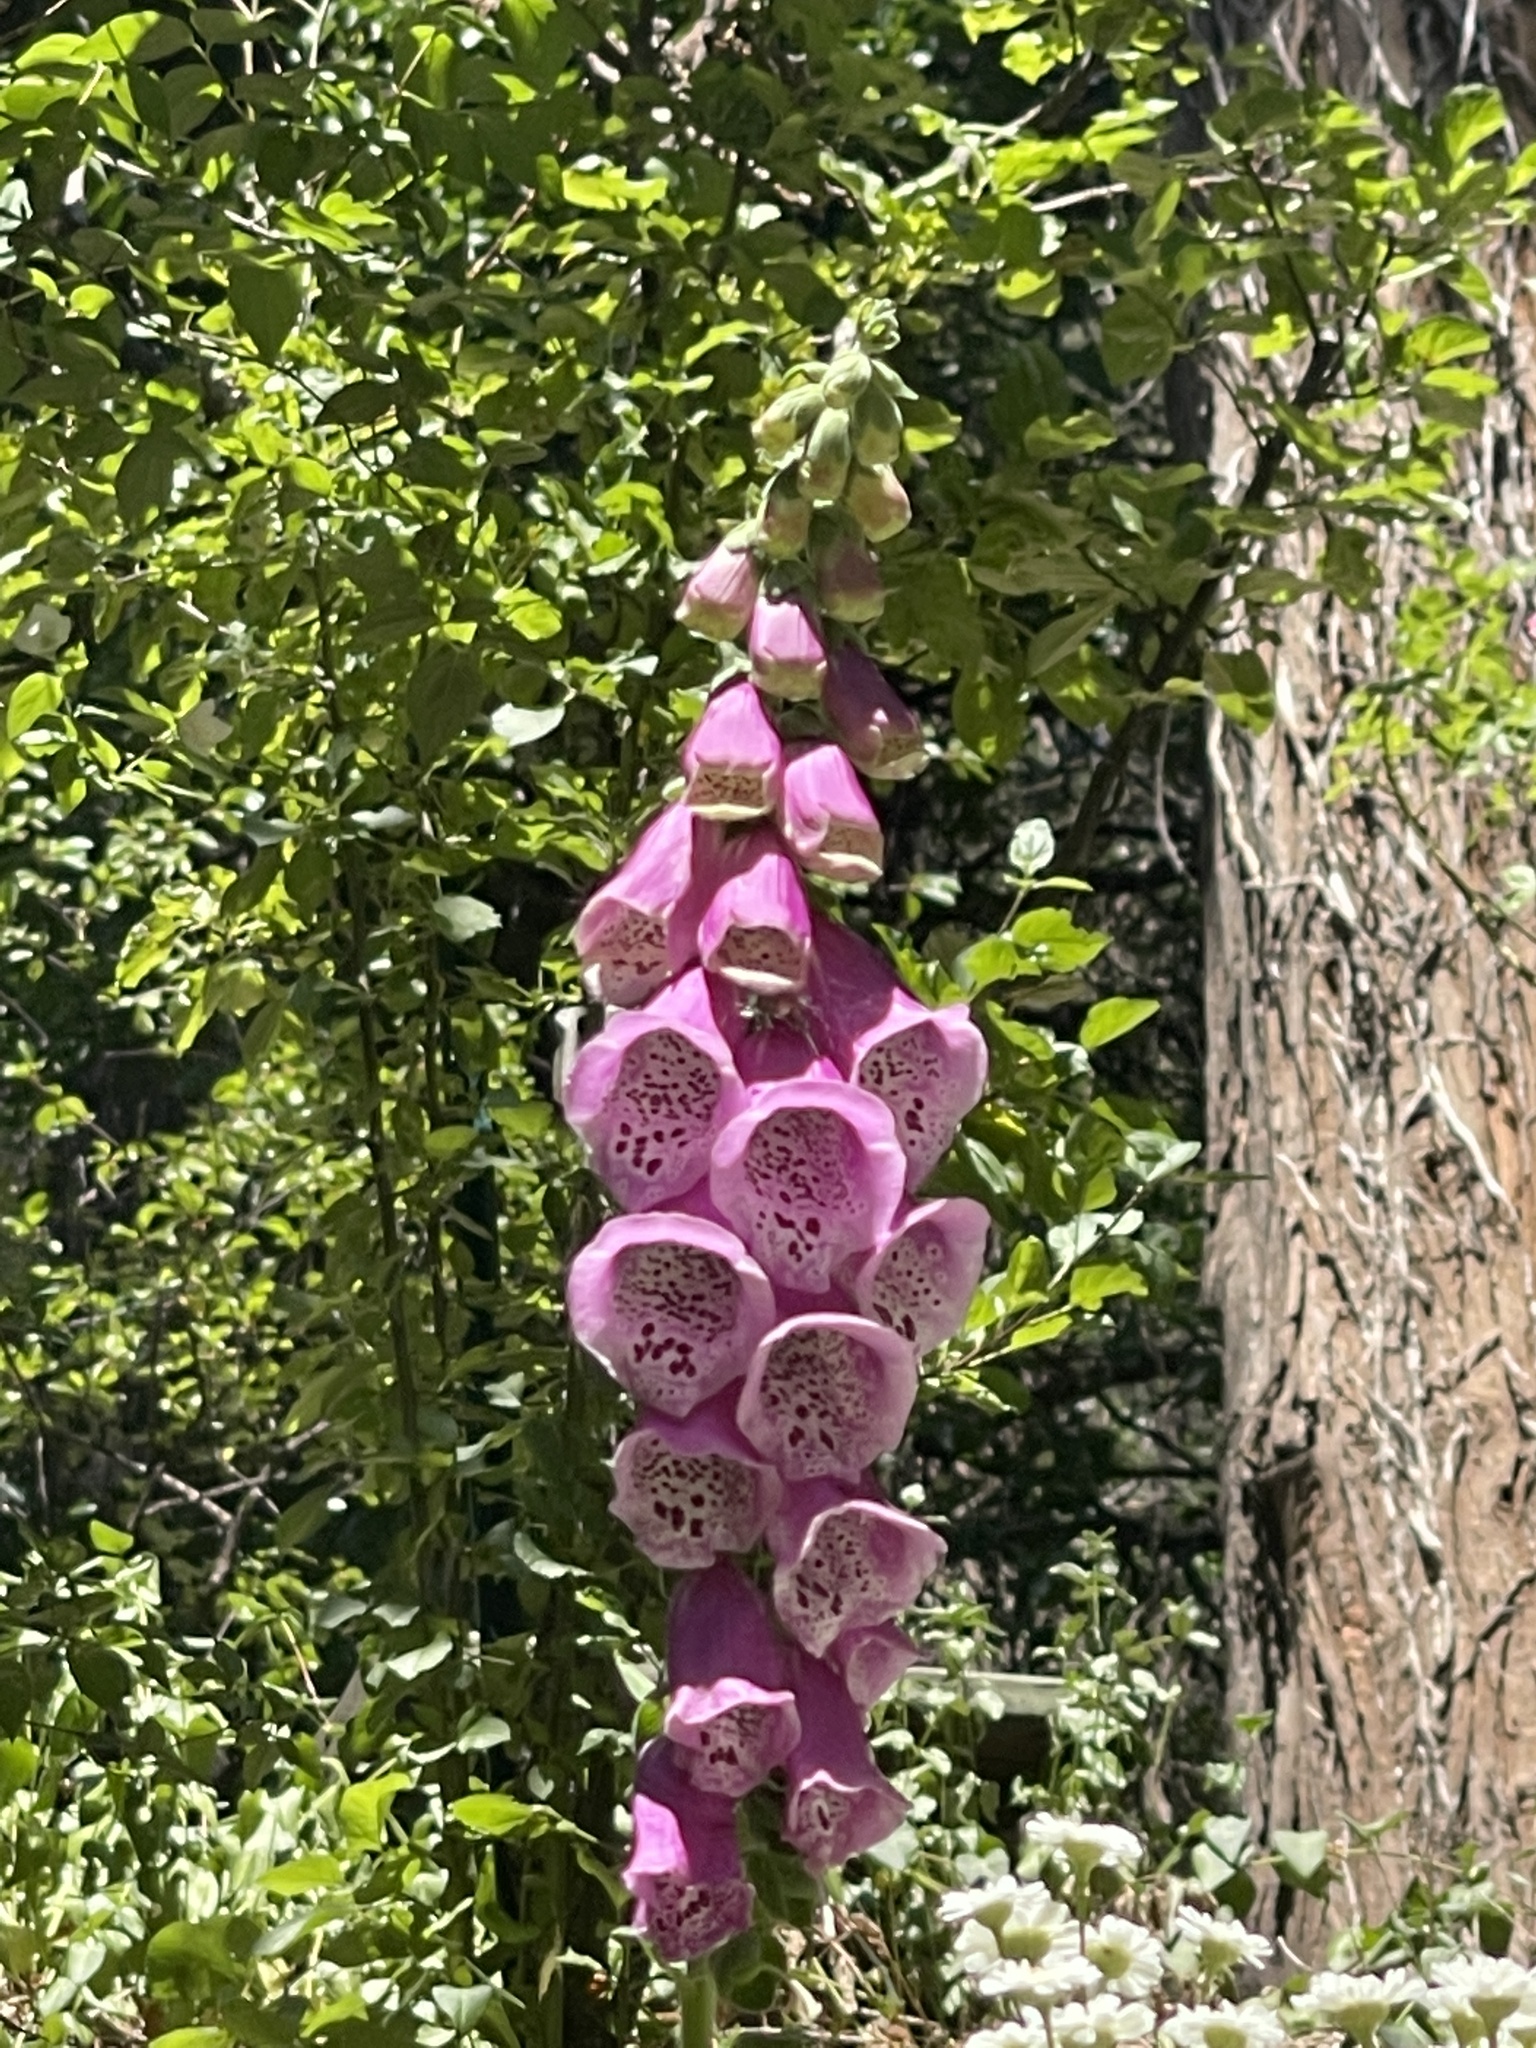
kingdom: Plantae
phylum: Tracheophyta
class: Magnoliopsida
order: Lamiales
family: Plantaginaceae
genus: Digitalis
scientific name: Digitalis purpurea
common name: Foxglove
